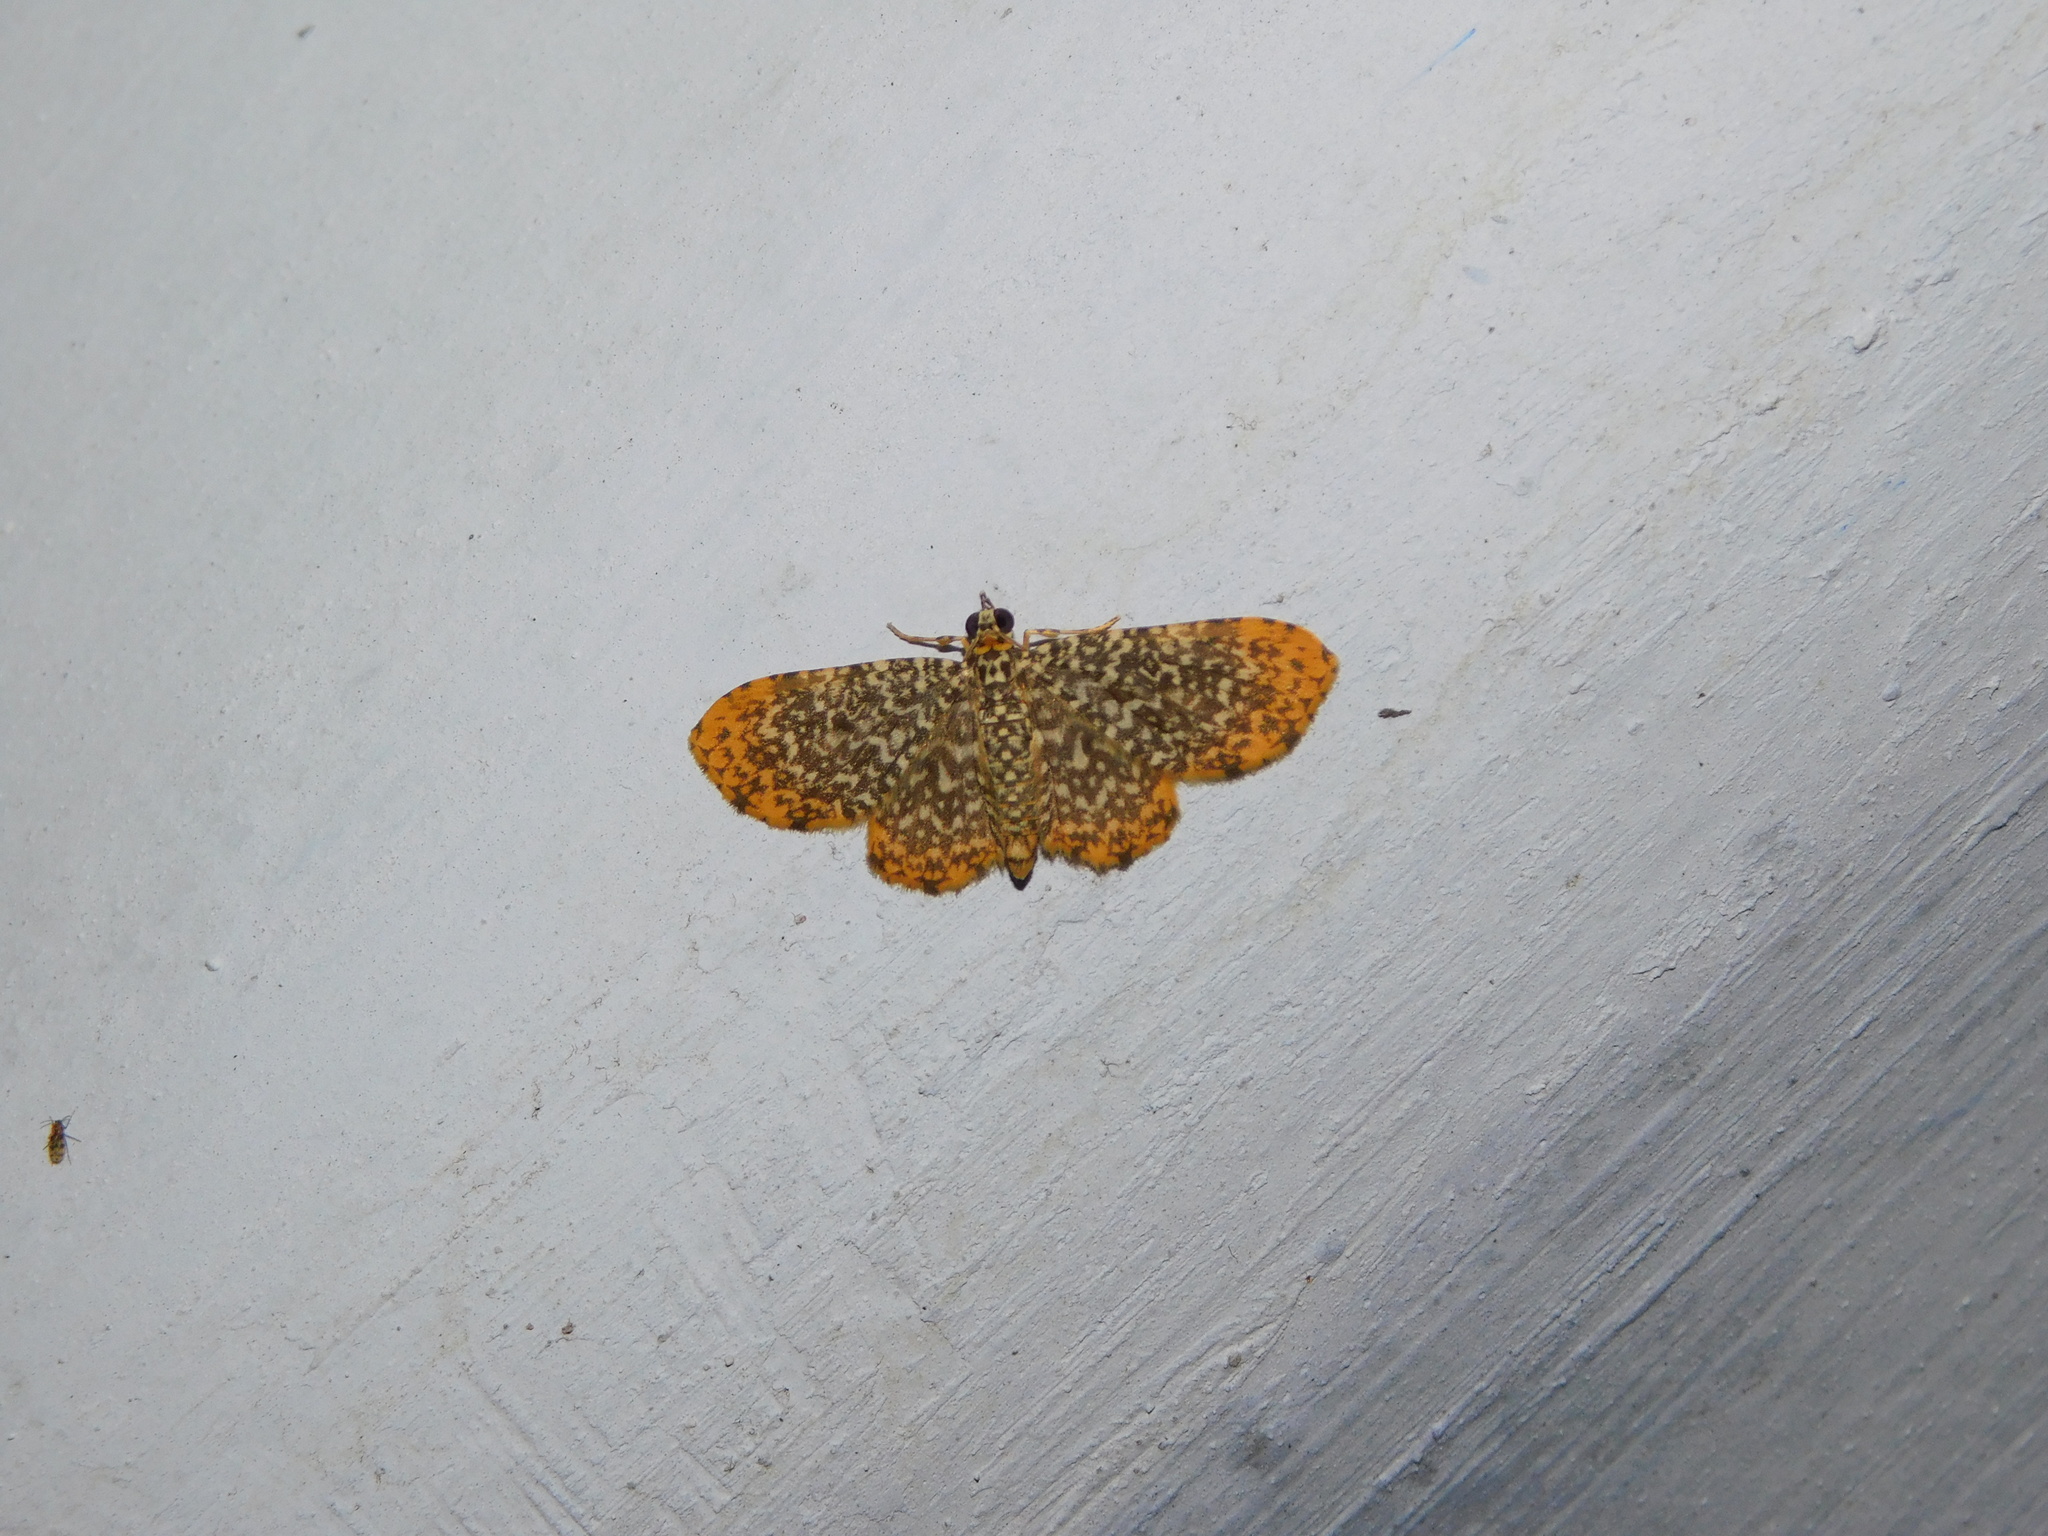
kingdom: Animalia
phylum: Arthropoda
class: Insecta
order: Lepidoptera
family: Geometridae
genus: Pomasia
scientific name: Pomasia psylaria
